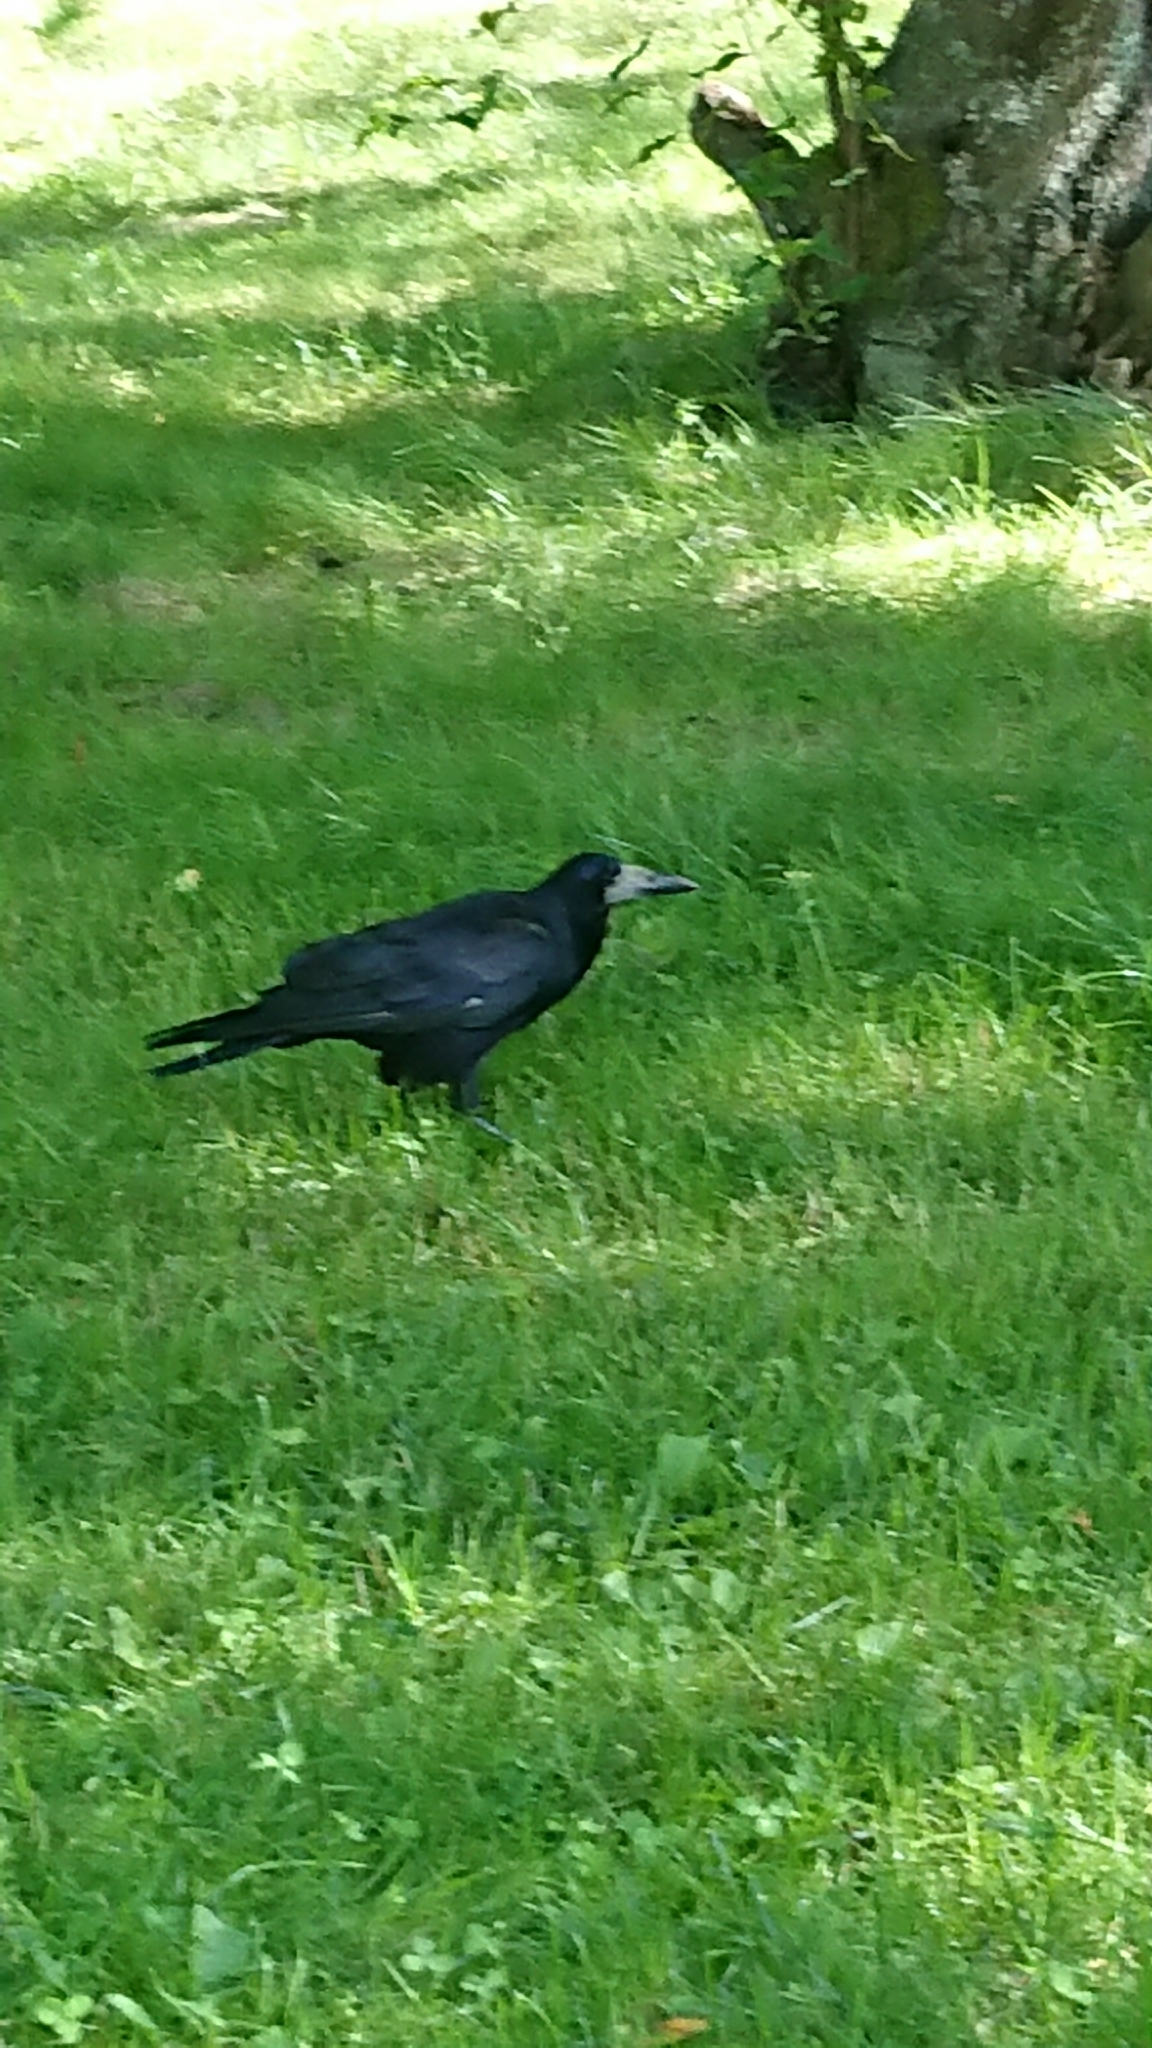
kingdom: Animalia
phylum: Chordata
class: Aves
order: Passeriformes
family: Corvidae
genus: Corvus
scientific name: Corvus frugilegus
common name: Rook
